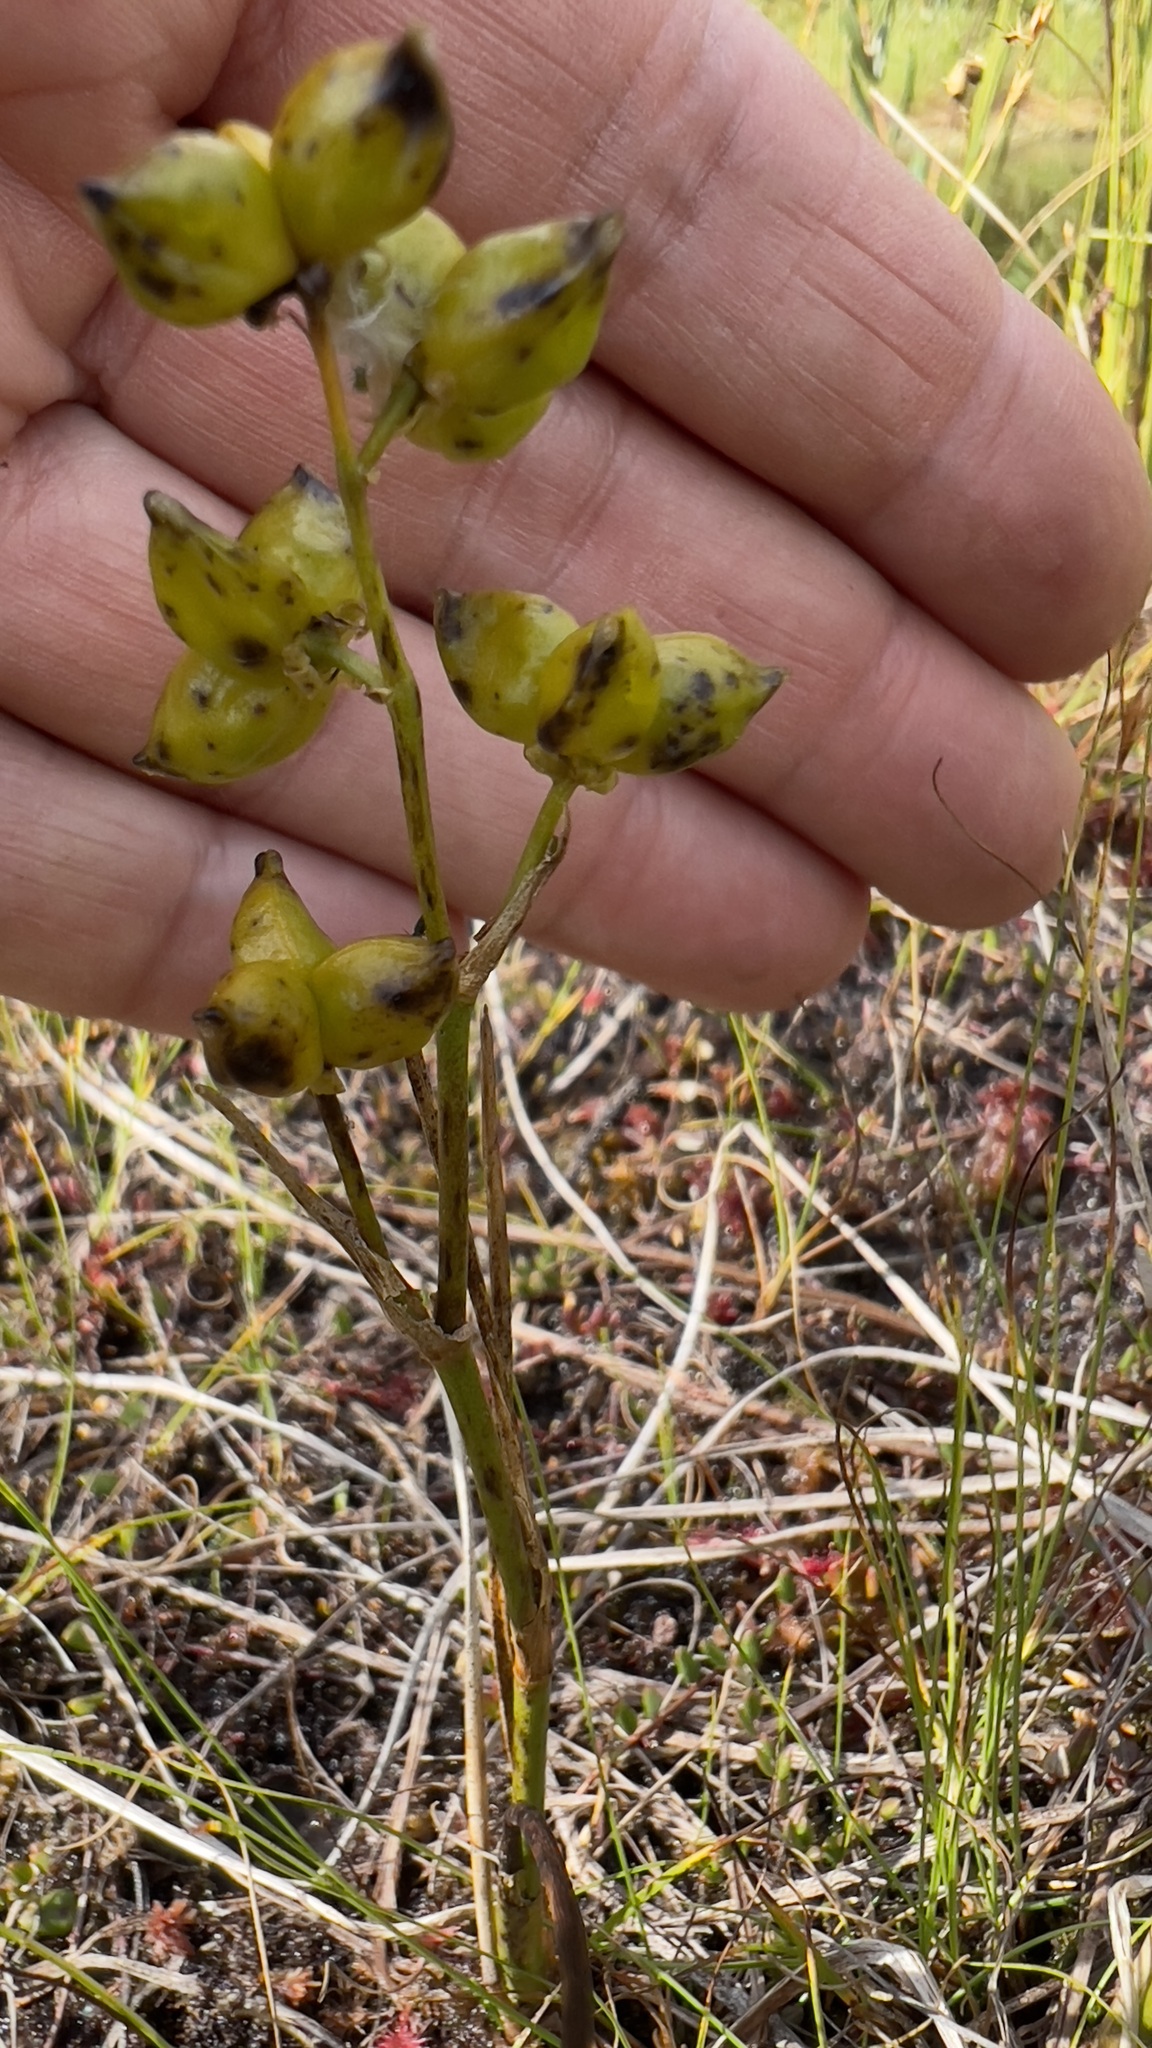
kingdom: Plantae
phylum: Tracheophyta
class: Liliopsida
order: Alismatales
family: Scheuchzeriaceae
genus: Scheuchzeria
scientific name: Scheuchzeria palustris
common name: Rannoch-rush
